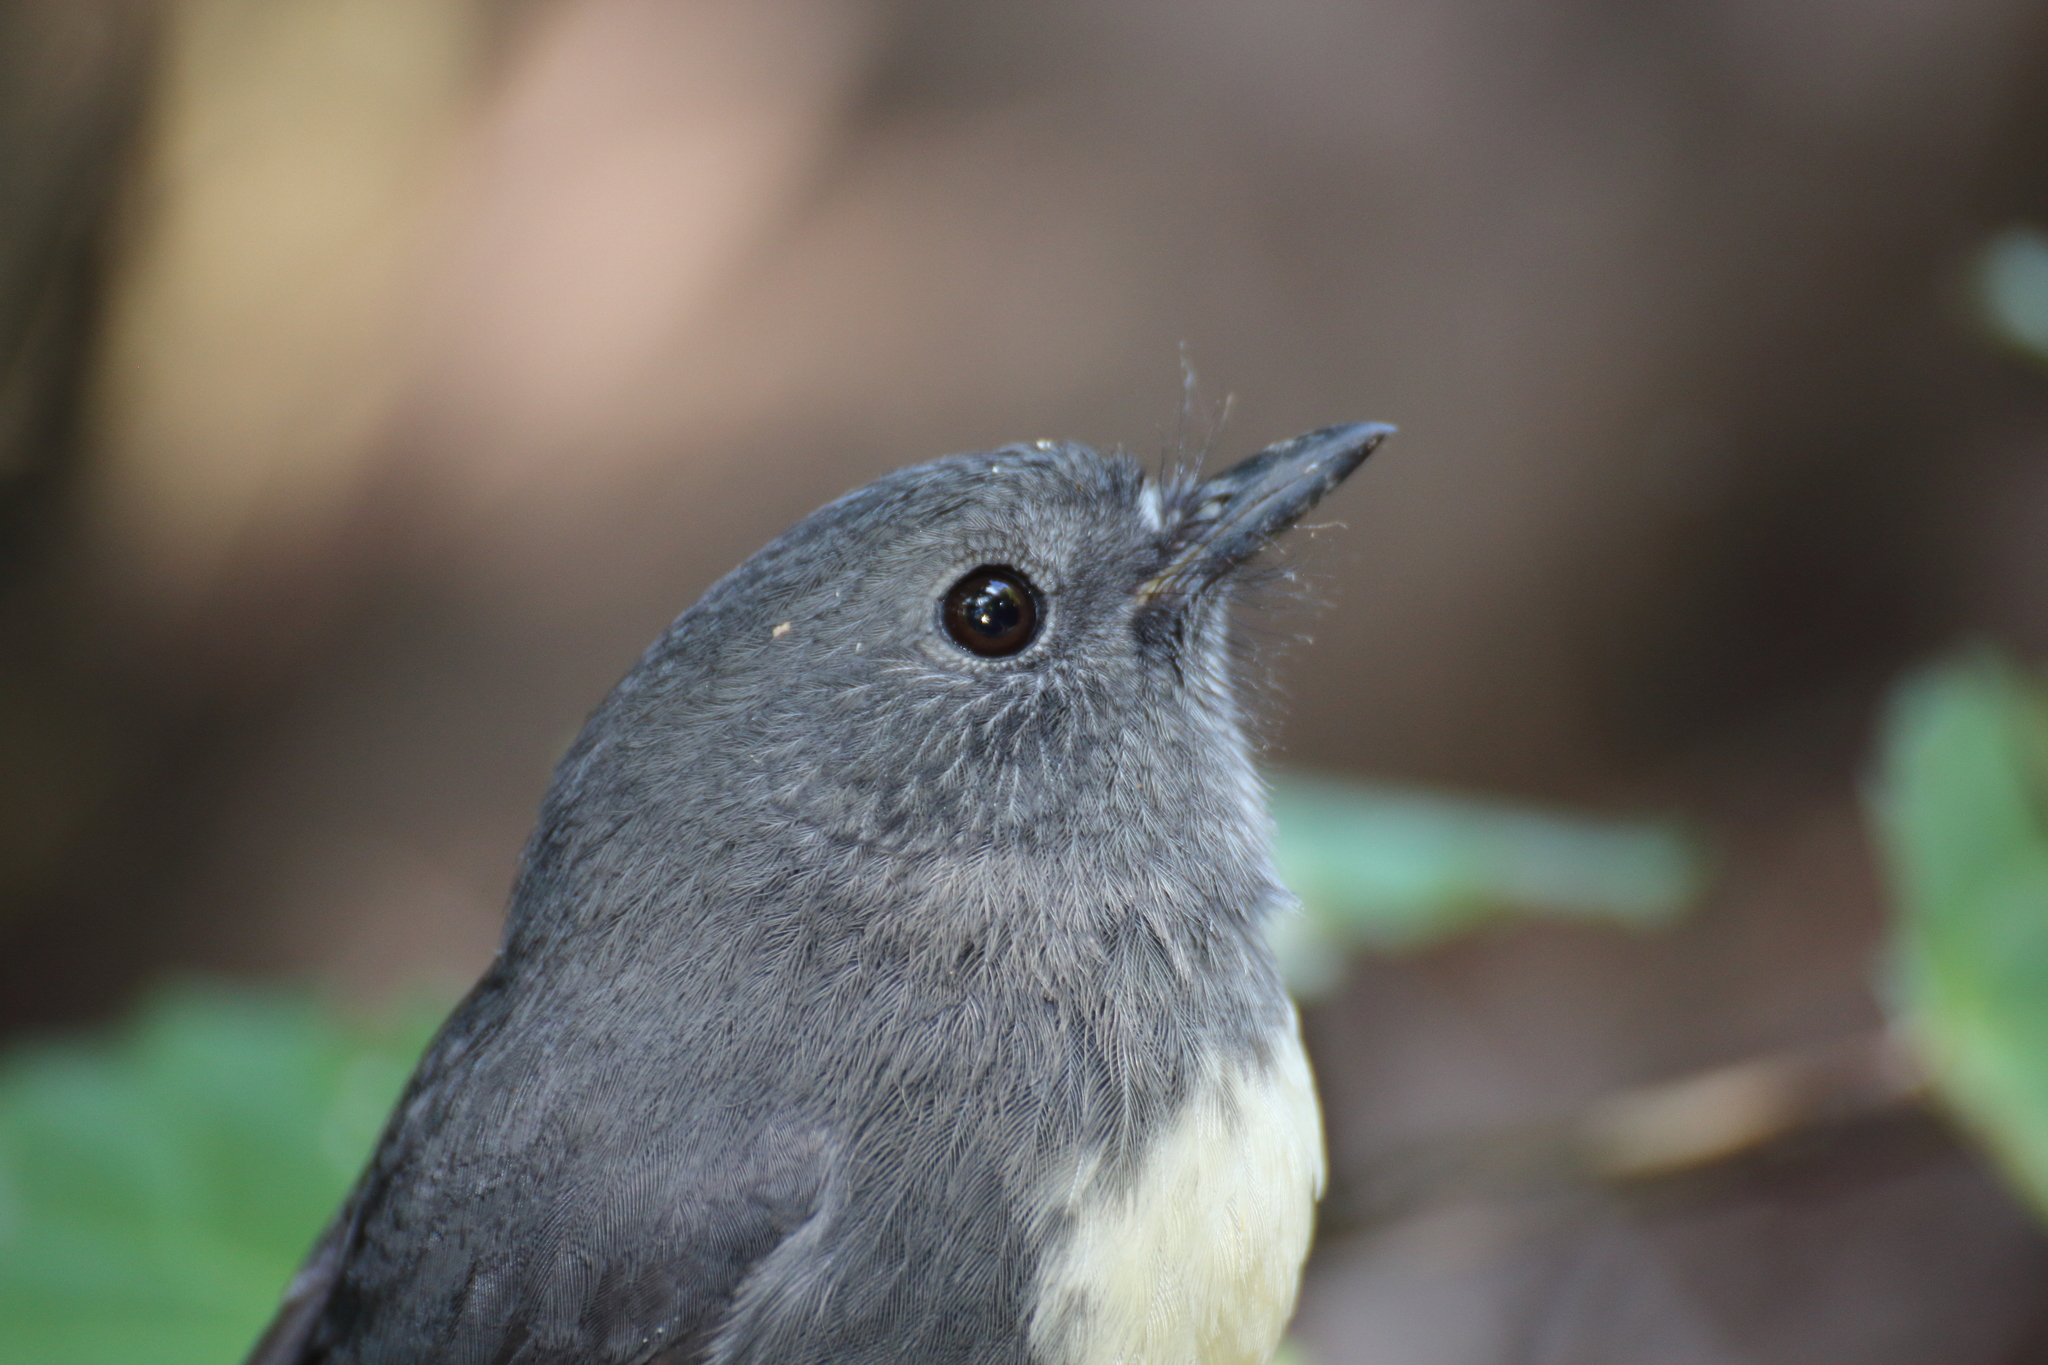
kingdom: Animalia
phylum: Chordata
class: Aves
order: Passeriformes
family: Petroicidae
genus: Petroica
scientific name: Petroica australis
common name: New zealand robin
